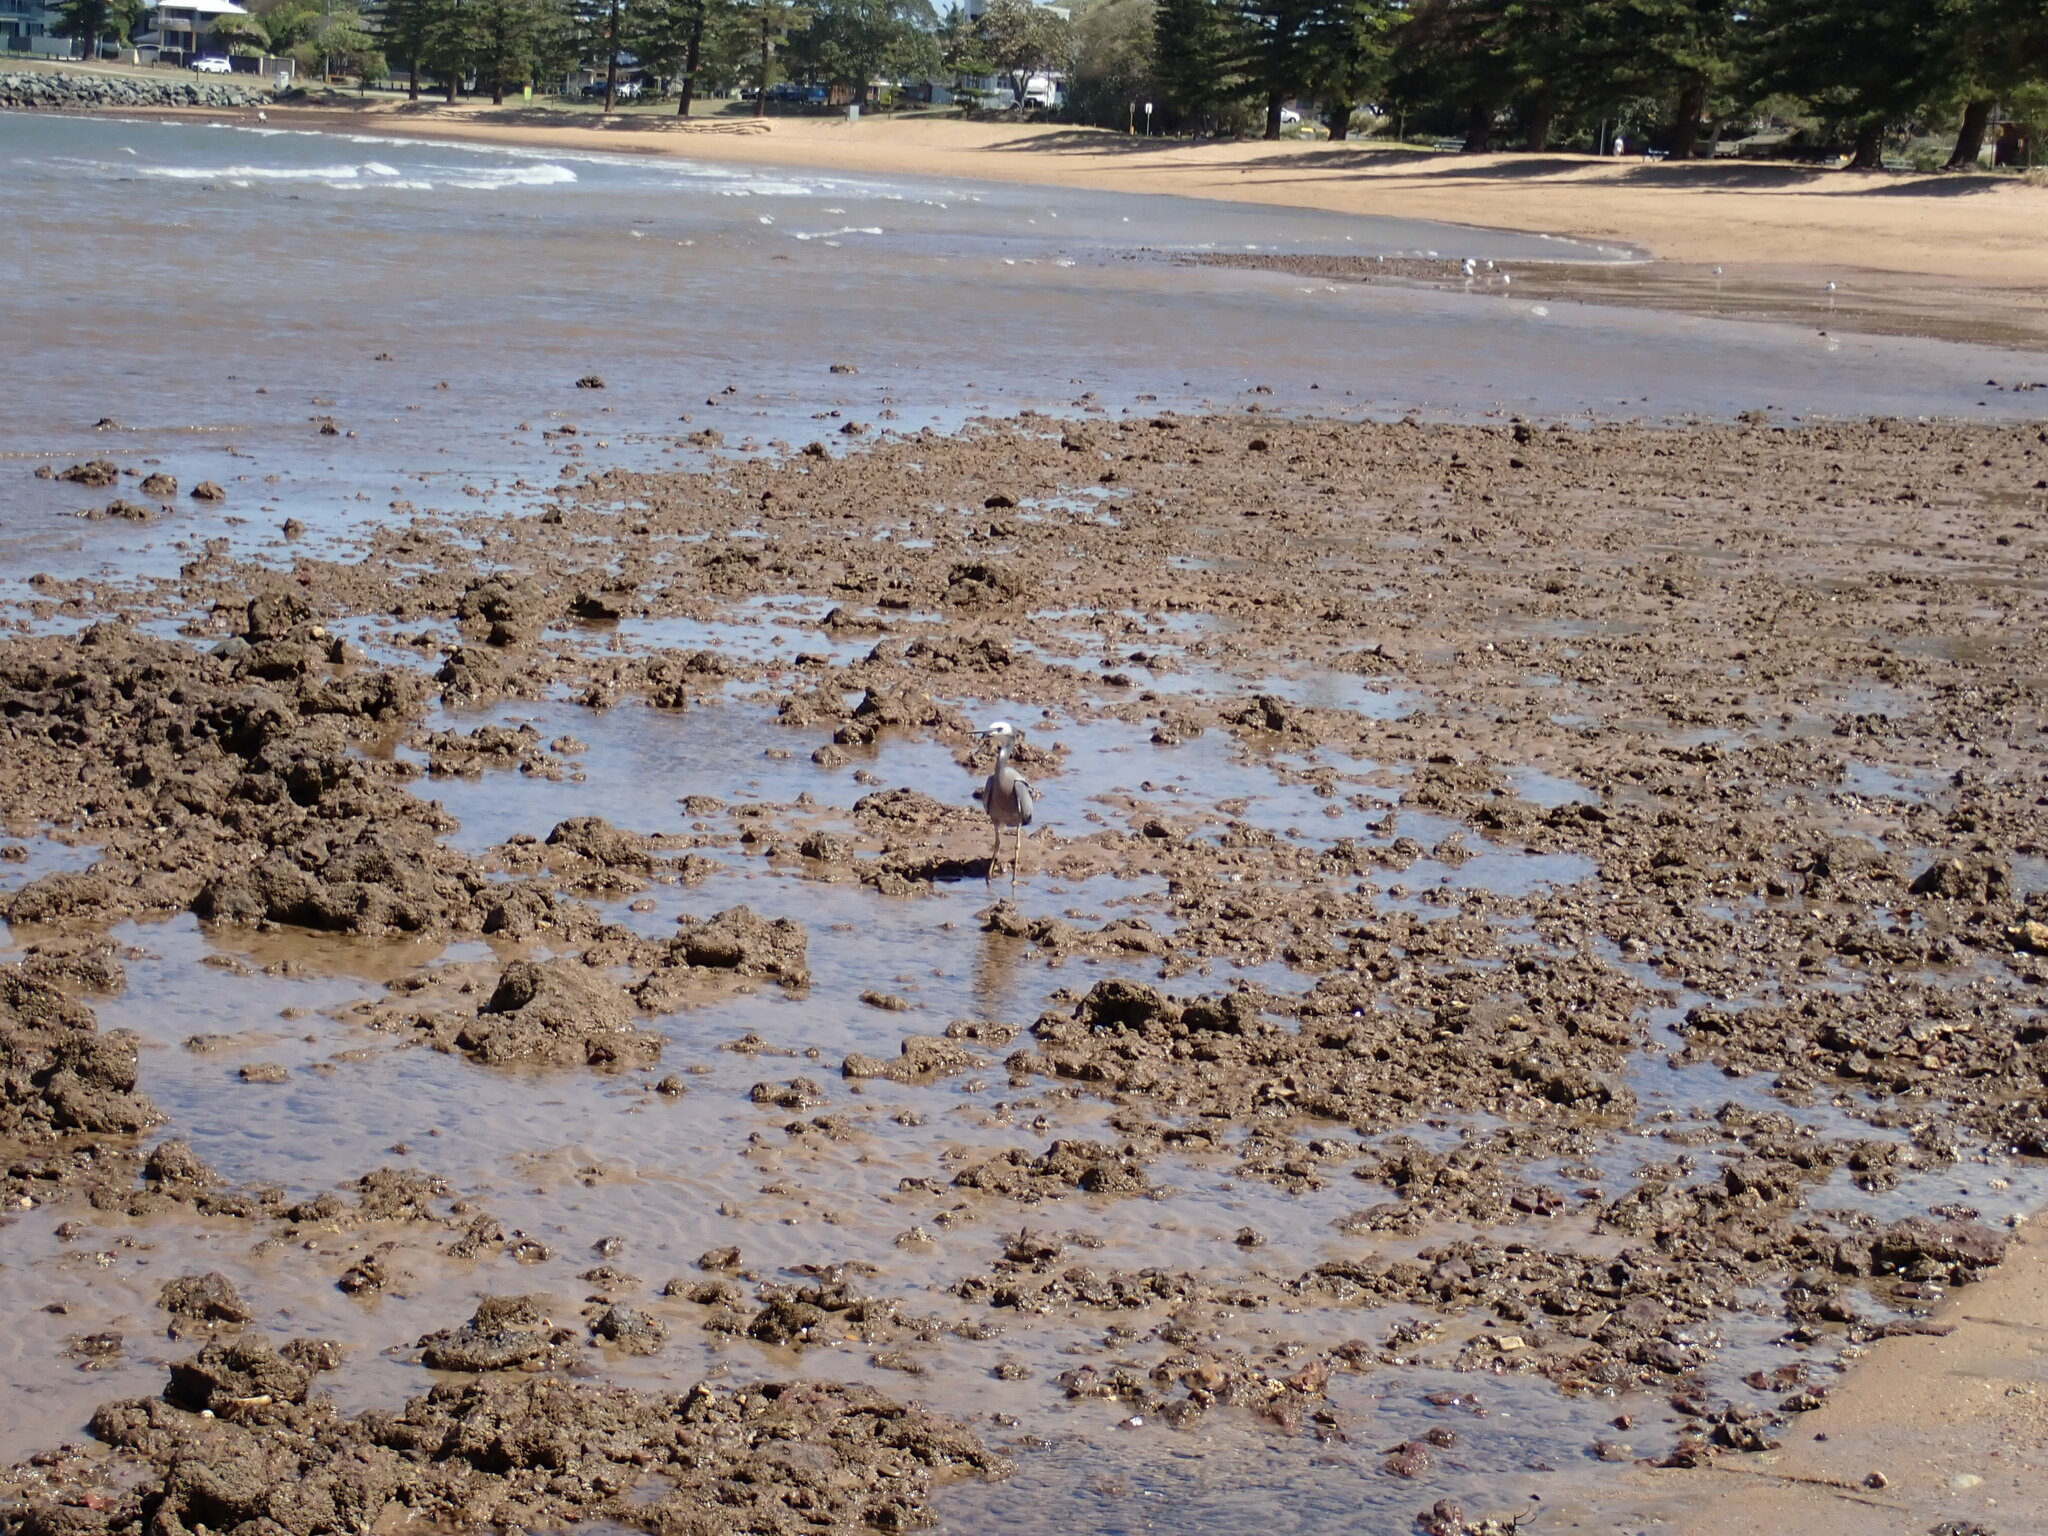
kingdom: Animalia
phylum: Chordata
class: Aves
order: Pelecaniformes
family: Ardeidae
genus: Egretta
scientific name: Egretta novaehollandiae
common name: White-faced heron
